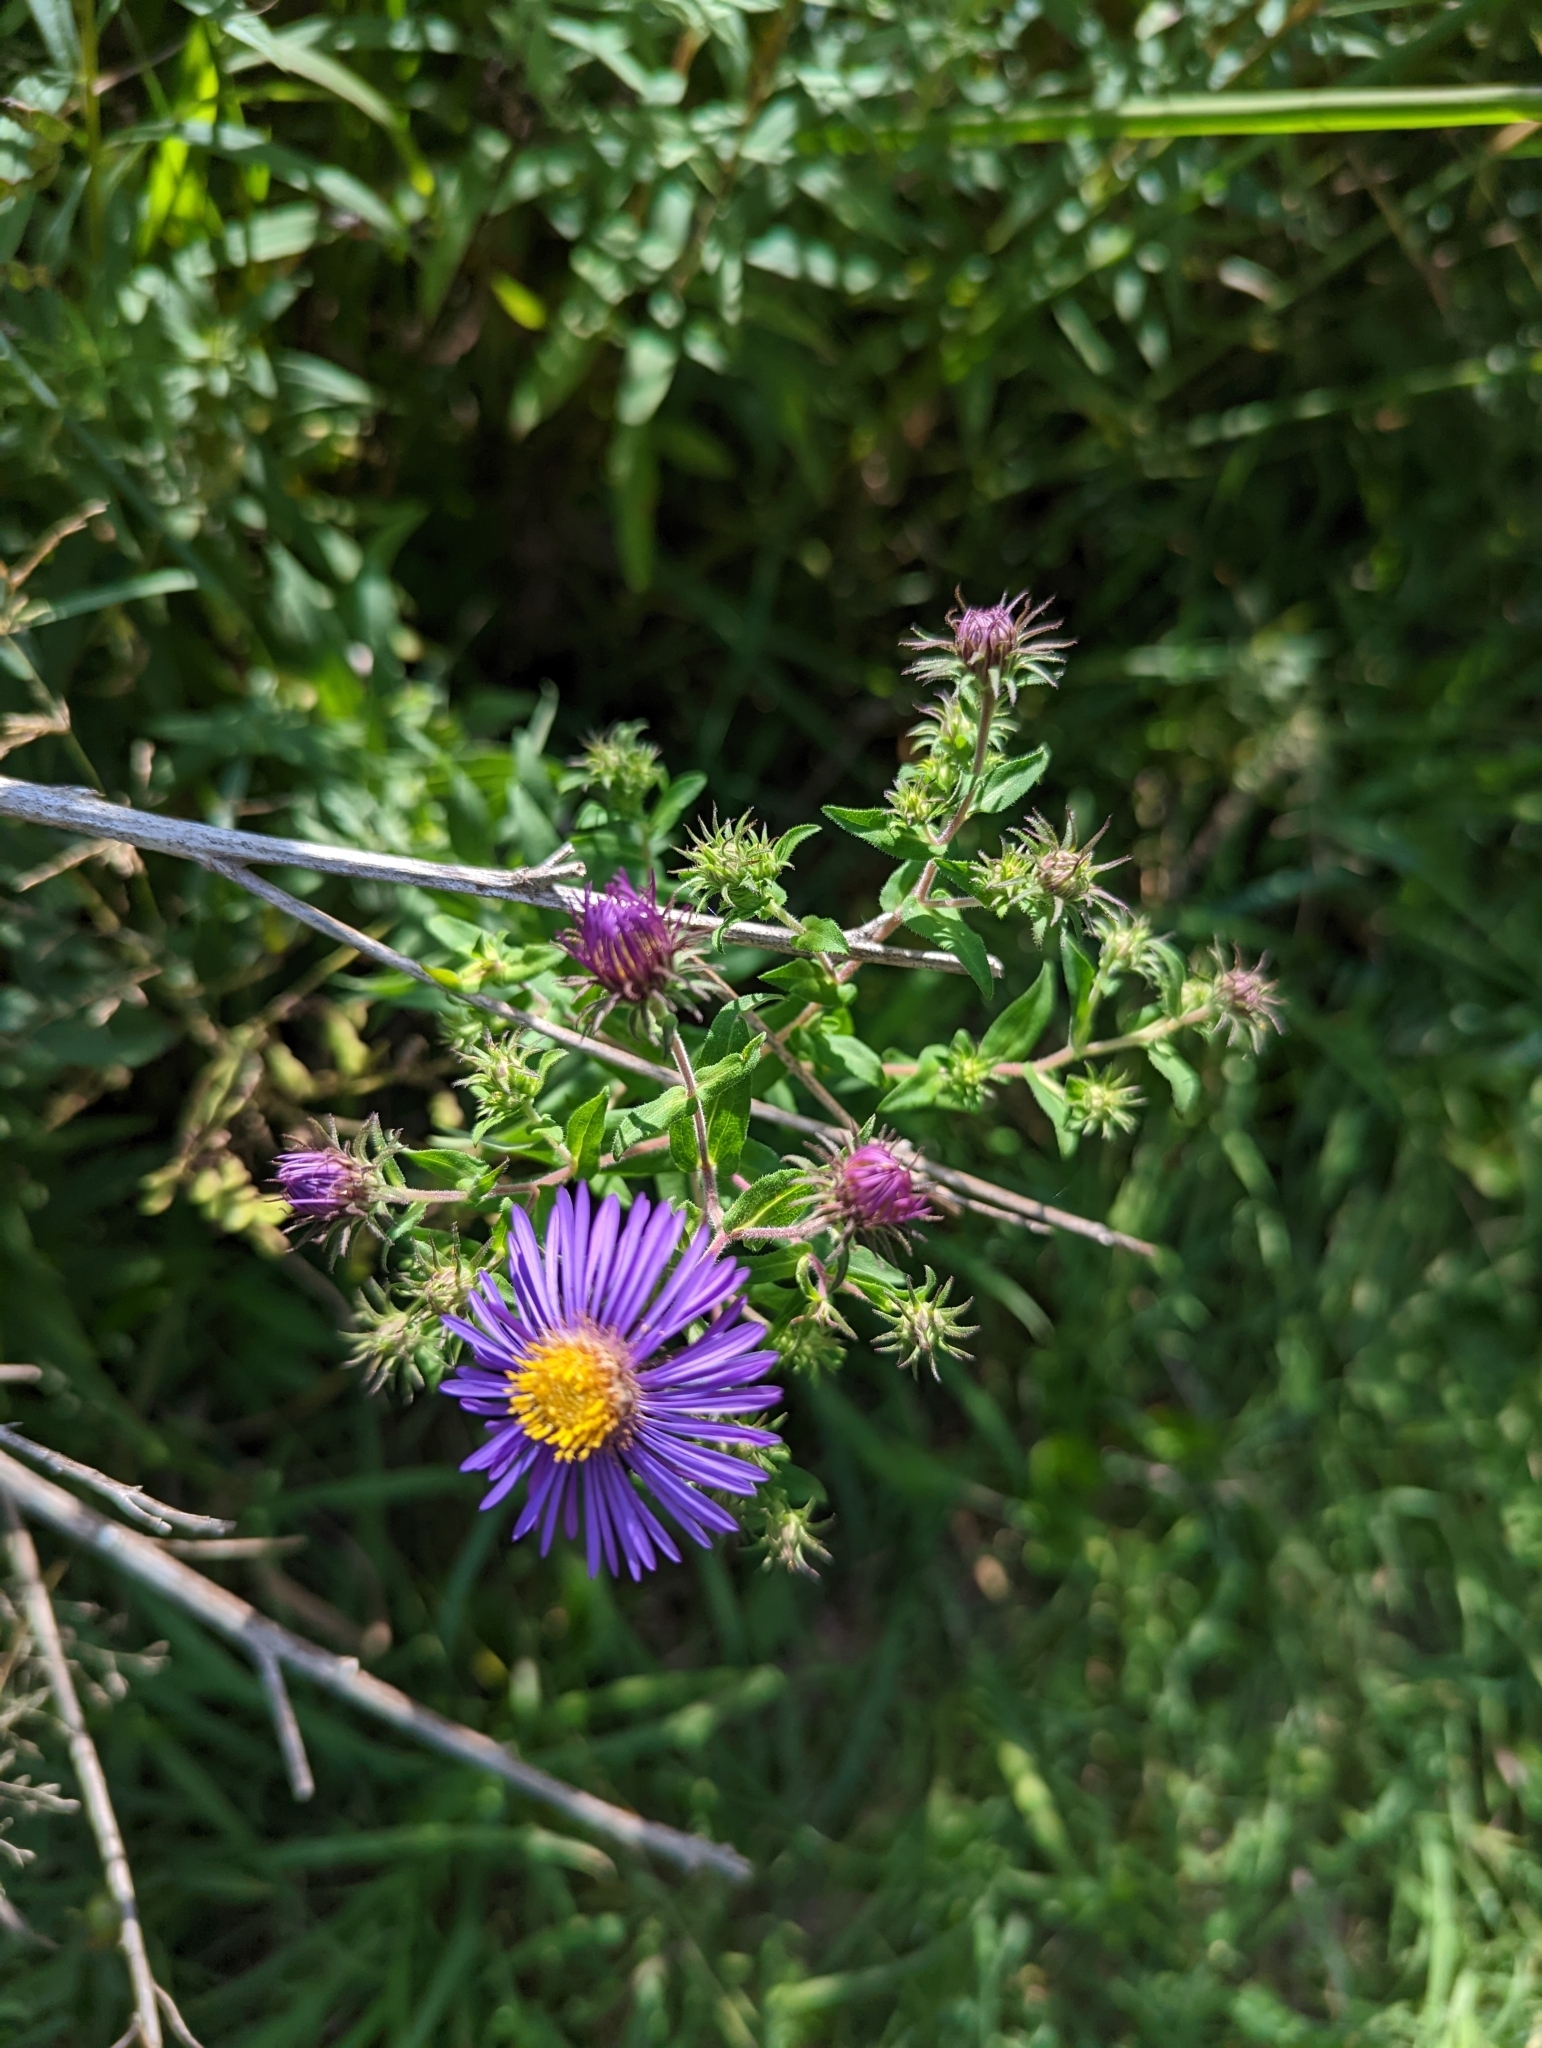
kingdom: Plantae
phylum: Tracheophyta
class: Magnoliopsida
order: Asterales
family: Asteraceae
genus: Symphyotrichum
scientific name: Symphyotrichum novae-angliae
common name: Michaelmas daisy
